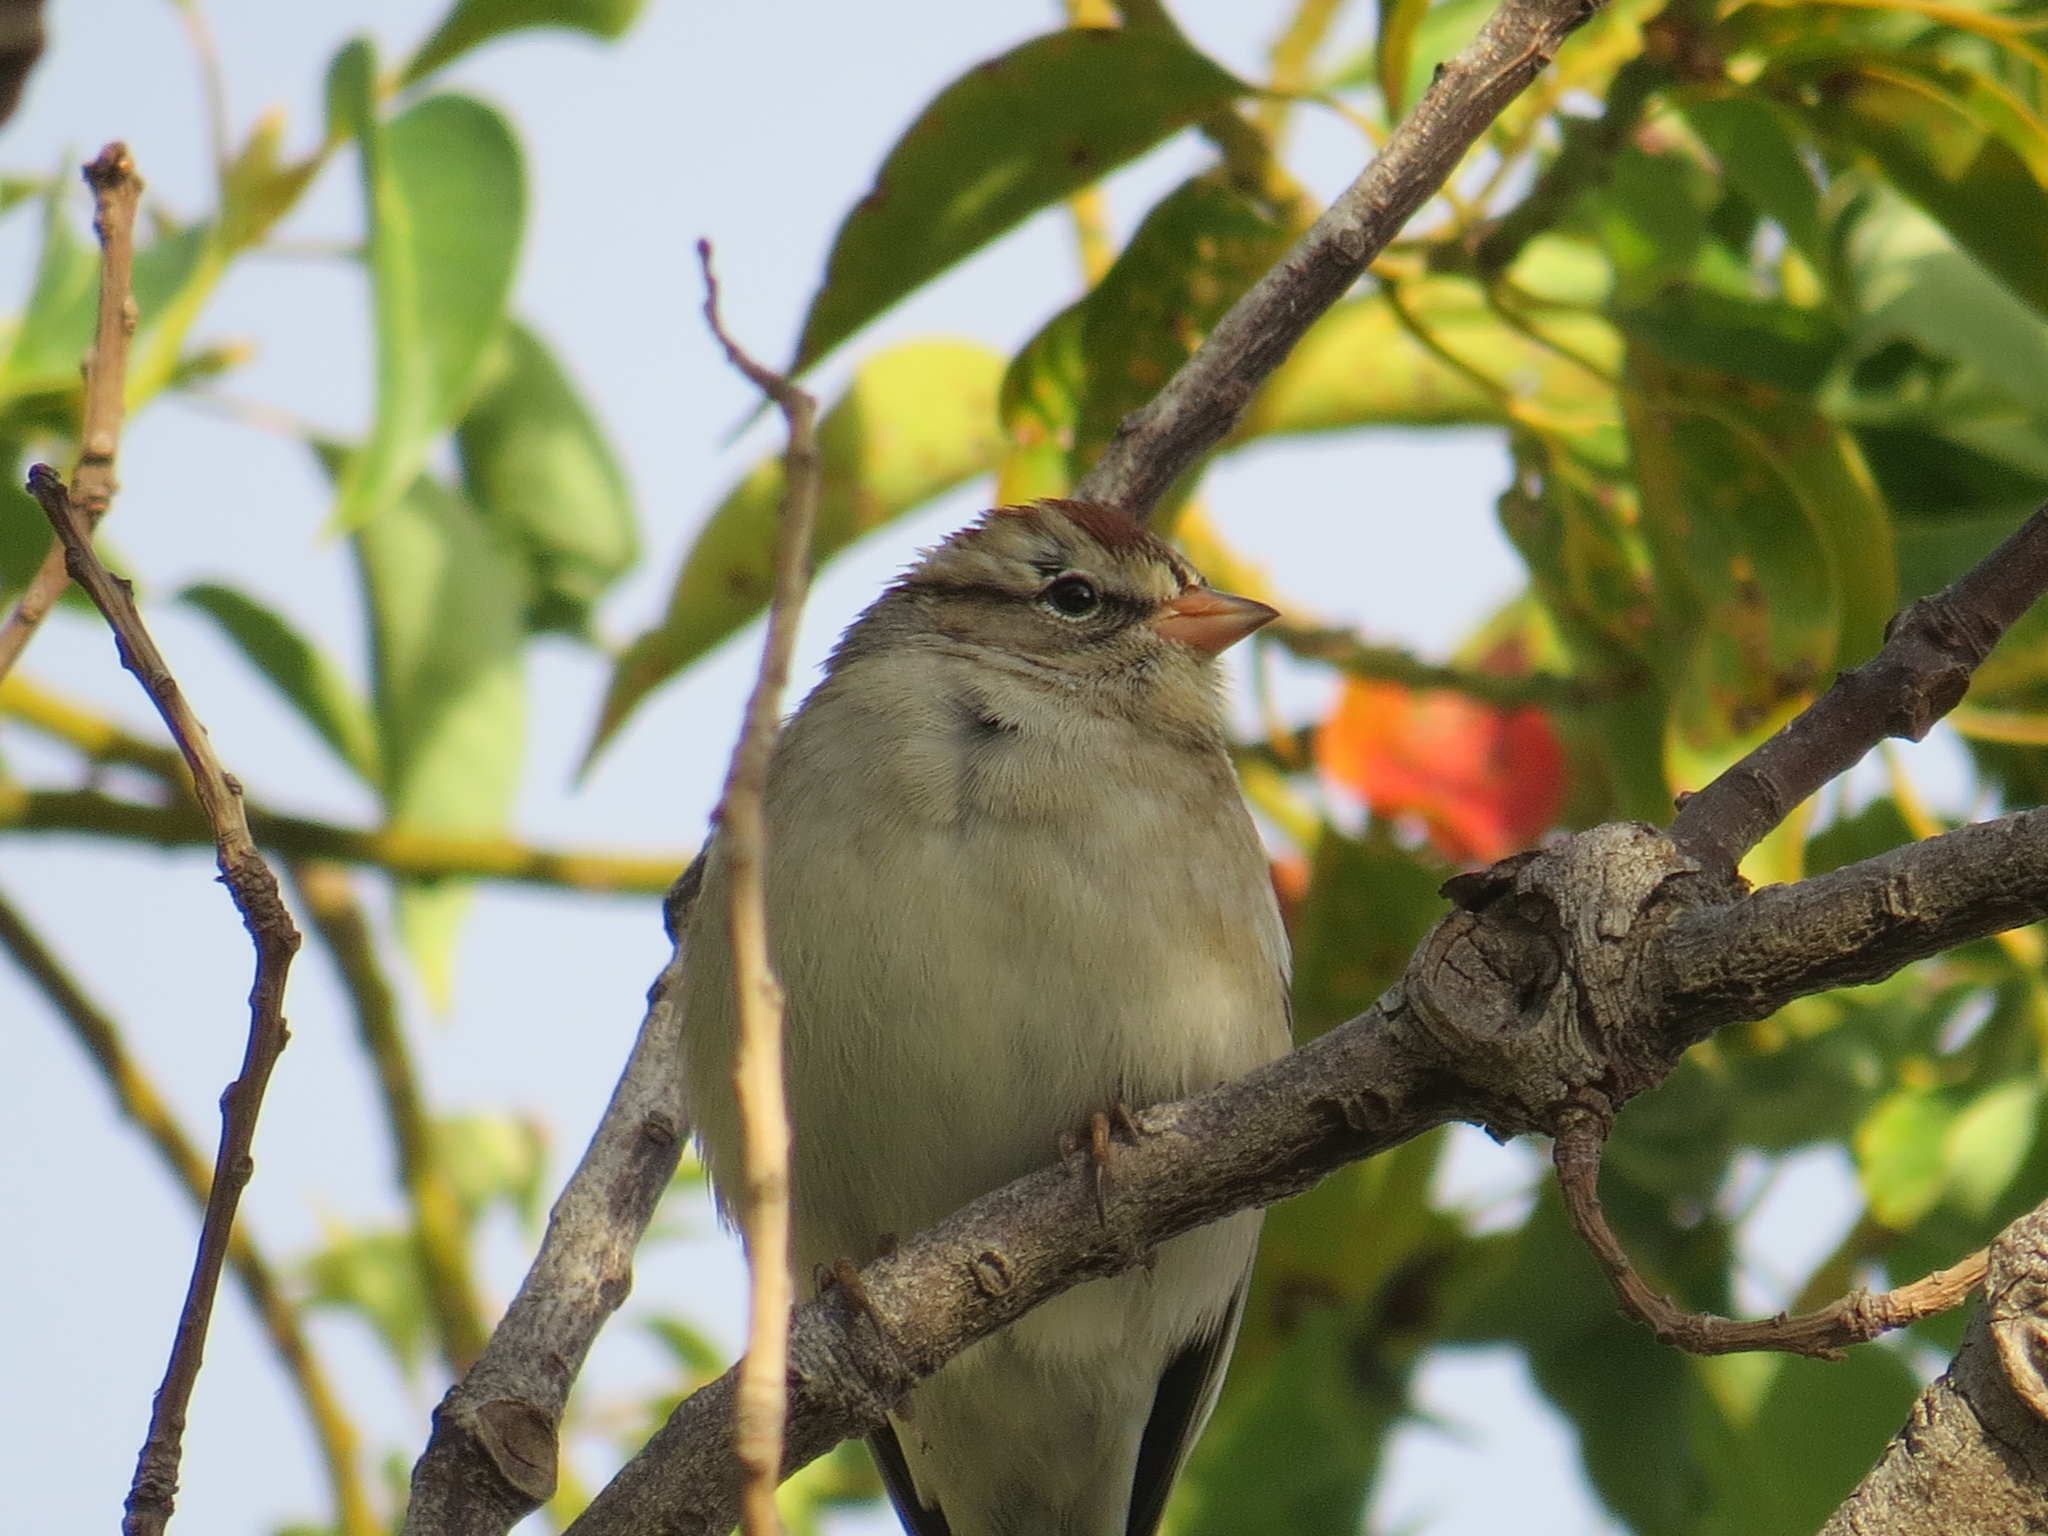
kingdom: Animalia
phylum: Chordata
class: Aves
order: Passeriformes
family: Passerellidae
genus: Spizella
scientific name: Spizella passerina
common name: Chipping sparrow
